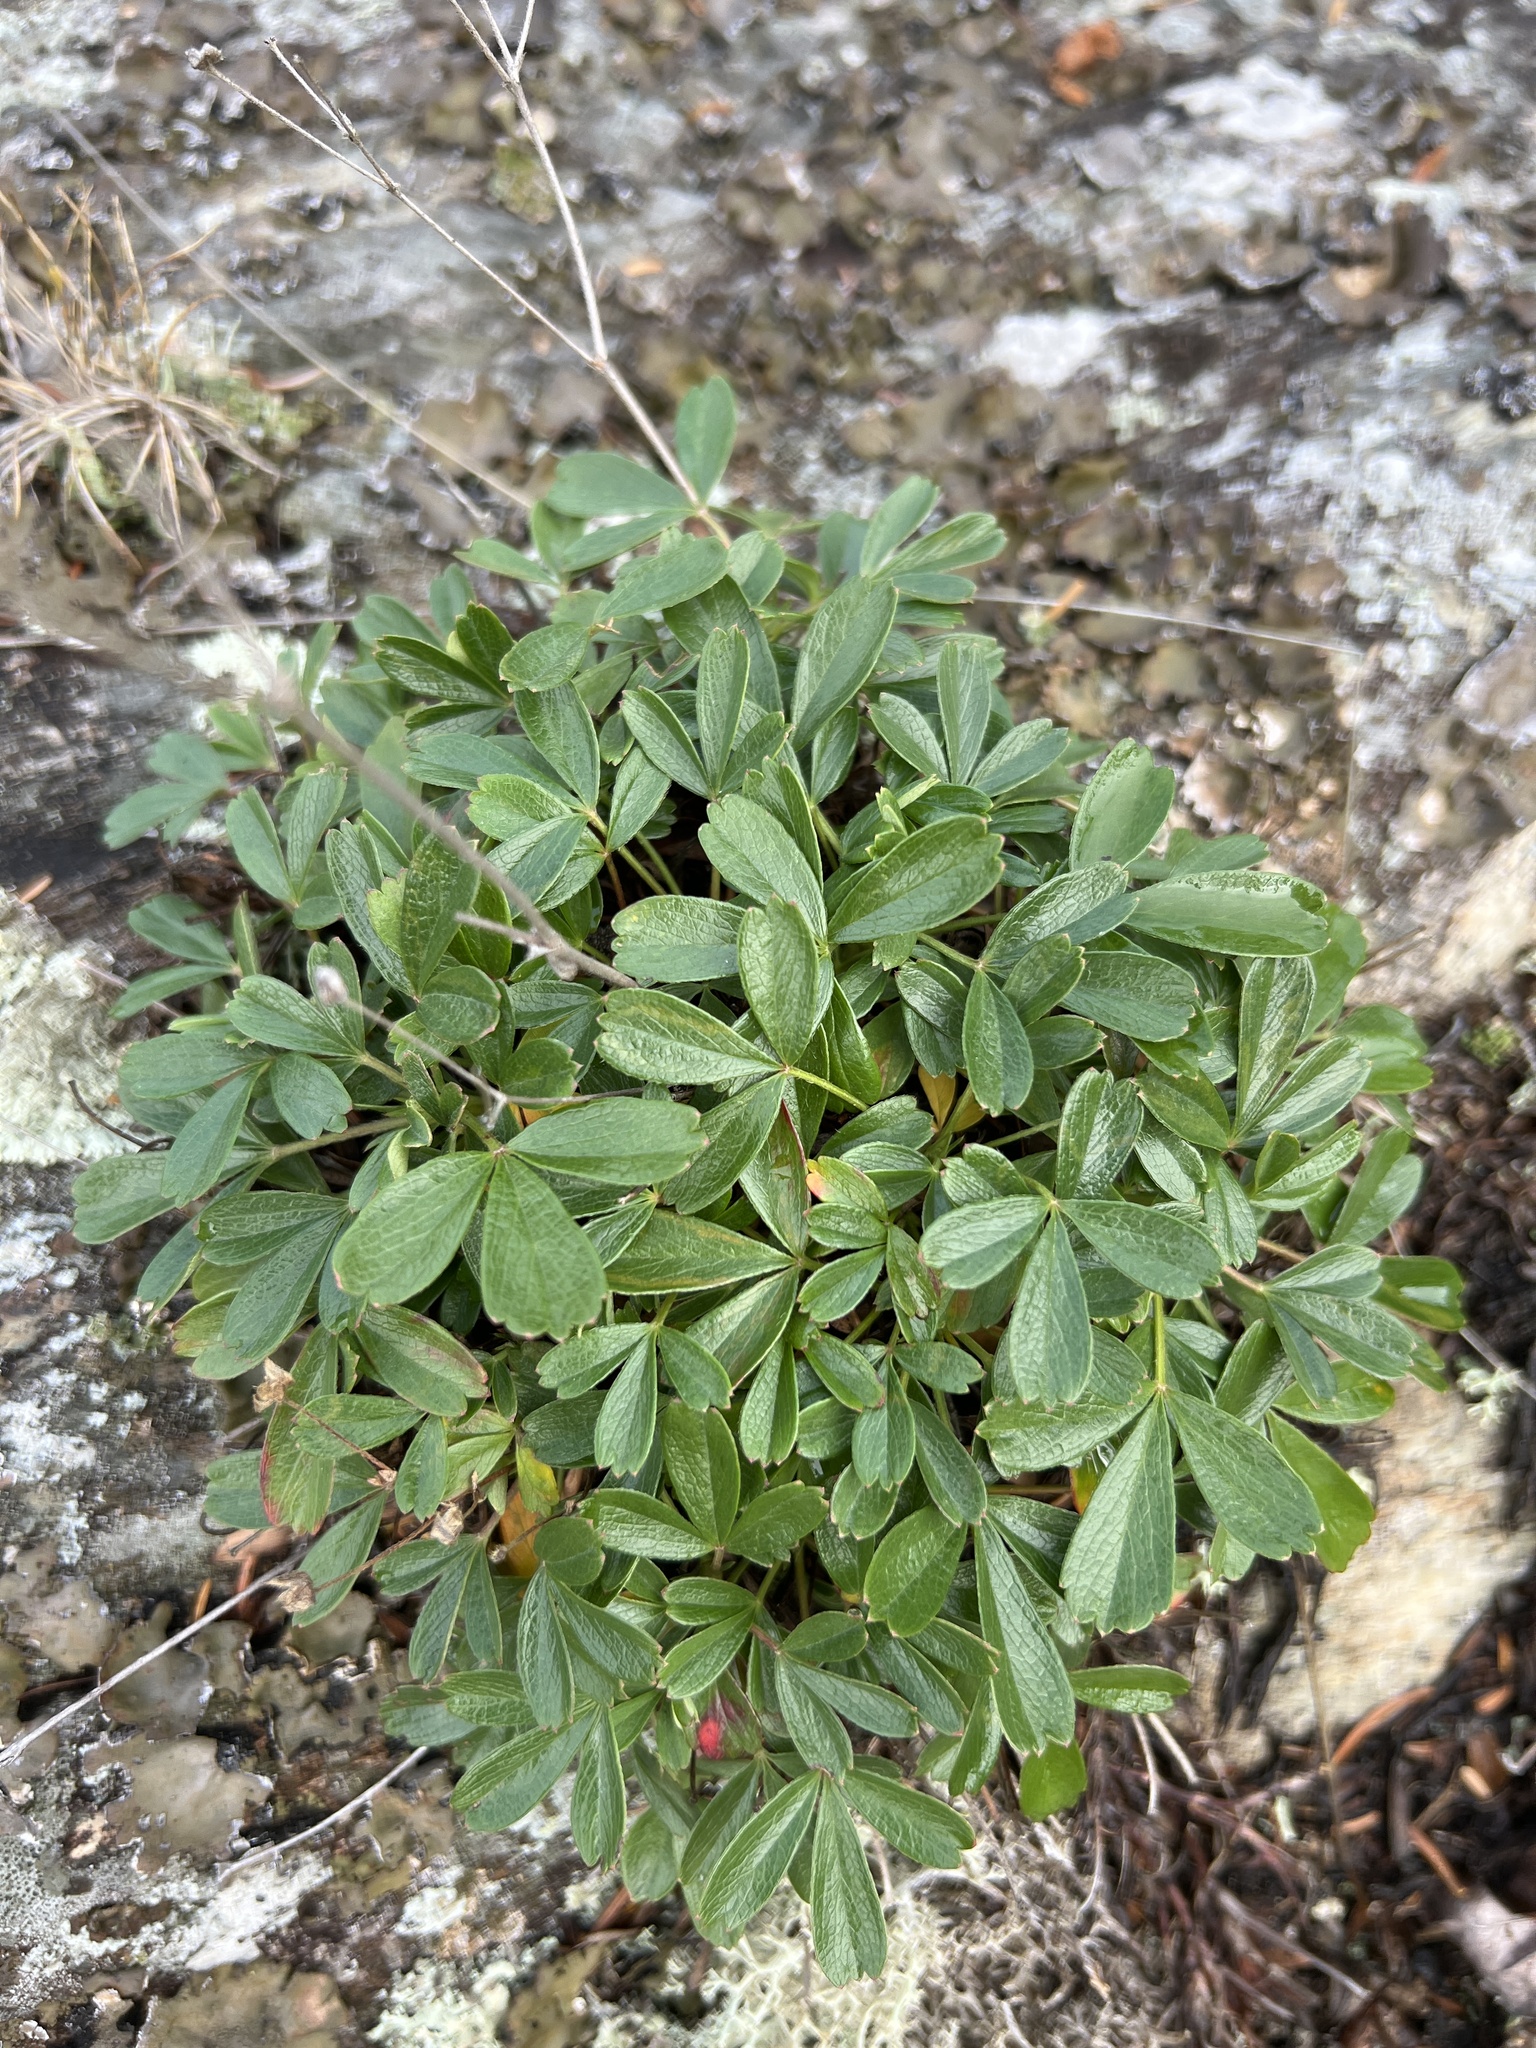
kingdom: Plantae
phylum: Tracheophyta
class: Magnoliopsida
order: Rosales
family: Rosaceae
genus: Sibbaldia
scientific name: Sibbaldia tridentata
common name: Three-toothed cinquefoil
